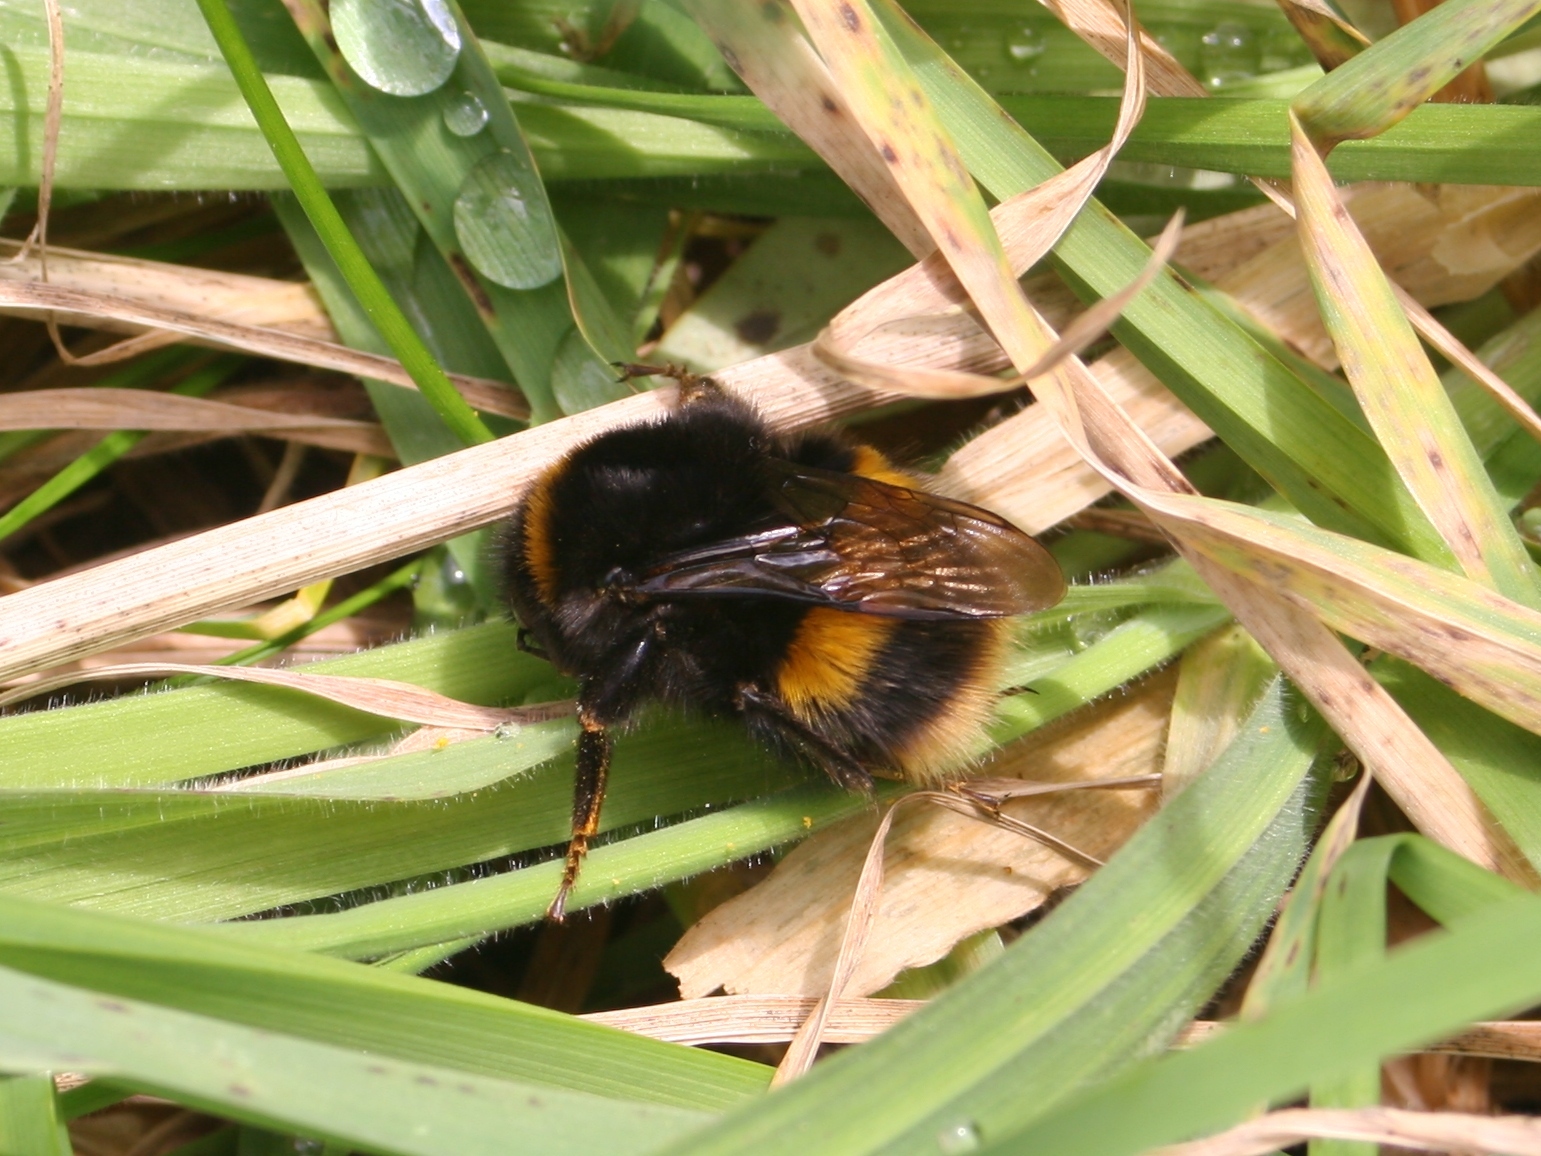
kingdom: Animalia
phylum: Arthropoda
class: Insecta
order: Hymenoptera
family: Apidae
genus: Bombus
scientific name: Bombus terrestris
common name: Buff-tailed bumblebee
